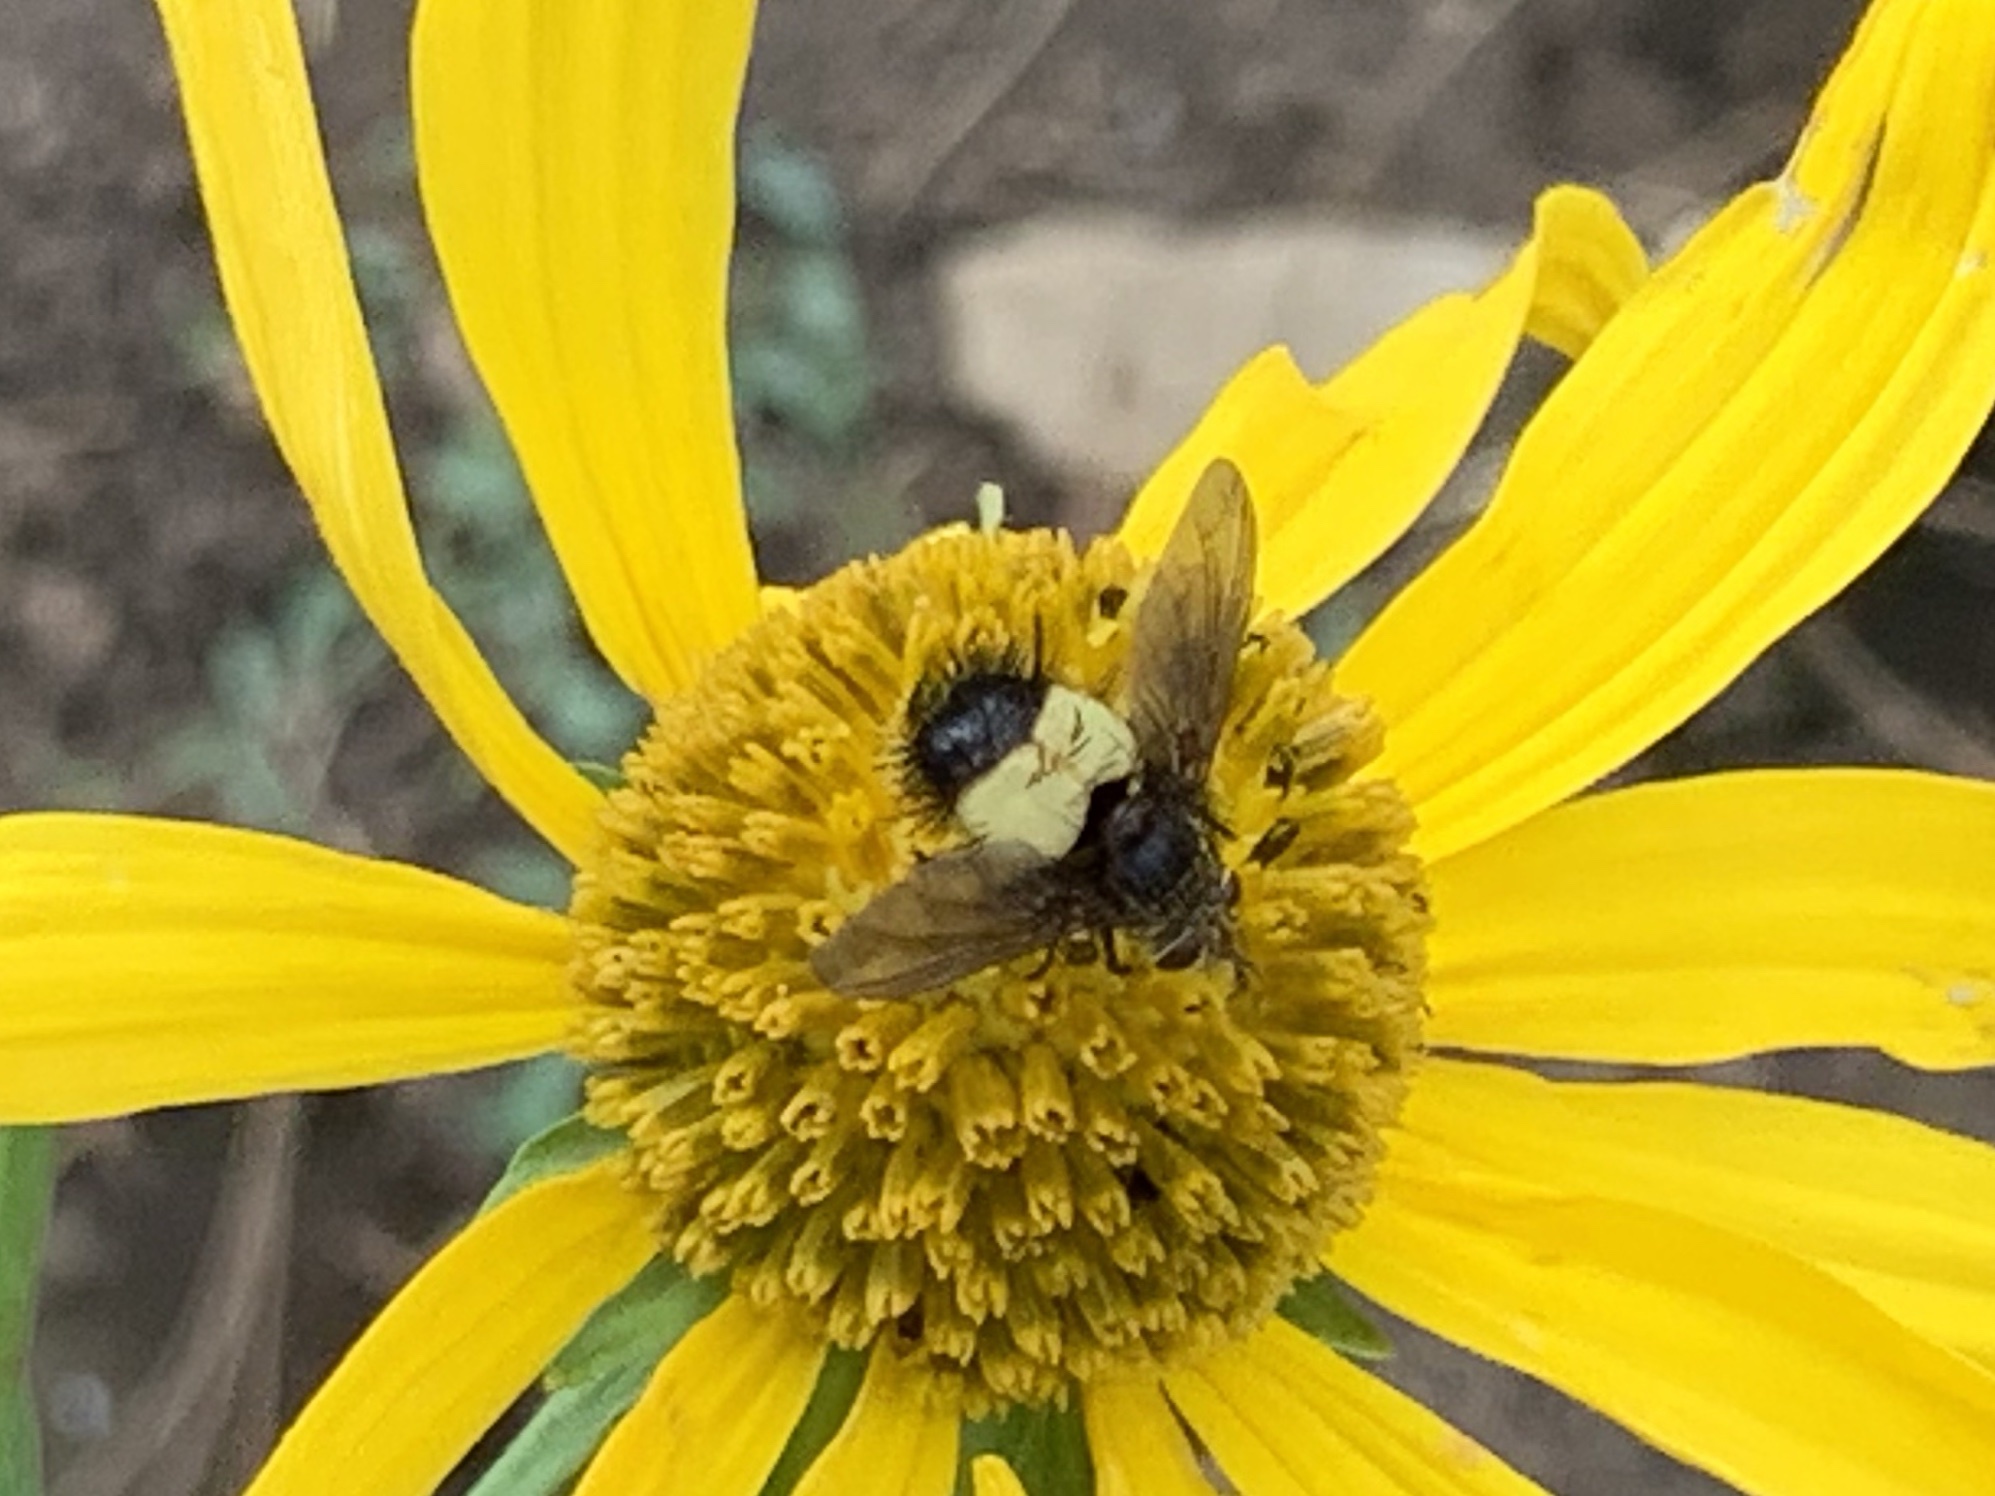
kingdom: Animalia
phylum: Arthropoda
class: Insecta
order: Diptera
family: Tachinidae
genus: Xanthoepalpus
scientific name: Xanthoepalpus bicolor
